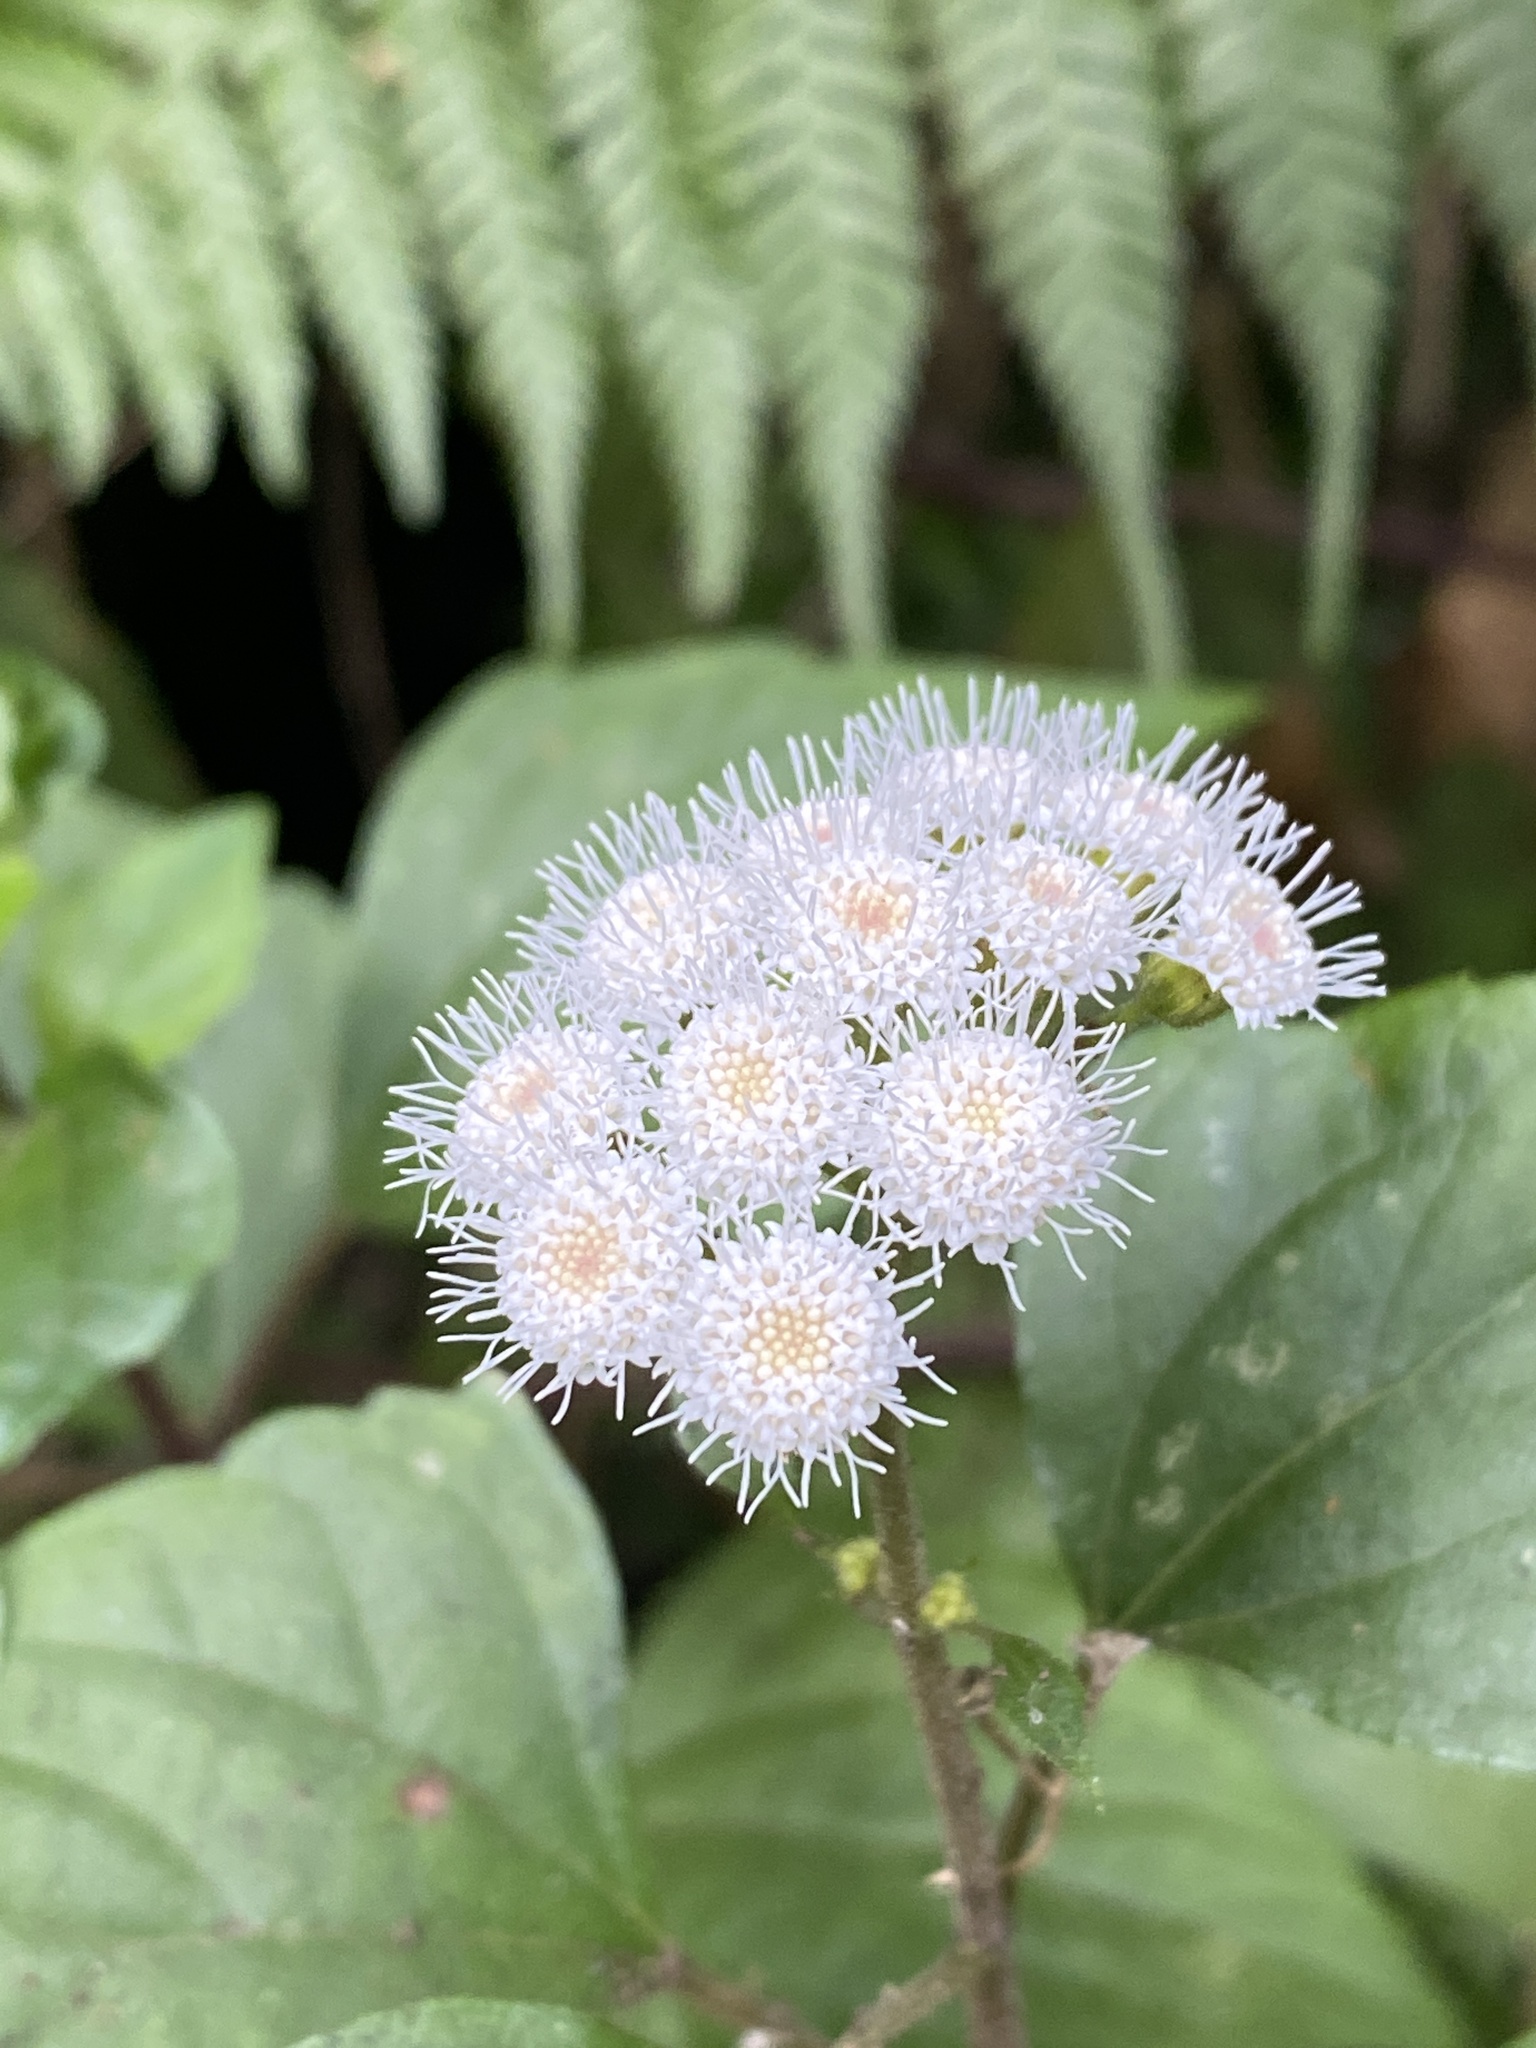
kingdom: Plantae
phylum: Tracheophyta
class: Magnoliopsida
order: Asterales
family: Asteraceae
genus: Ageratina
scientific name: Ageratina adenophora
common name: Sticky snakeroot
